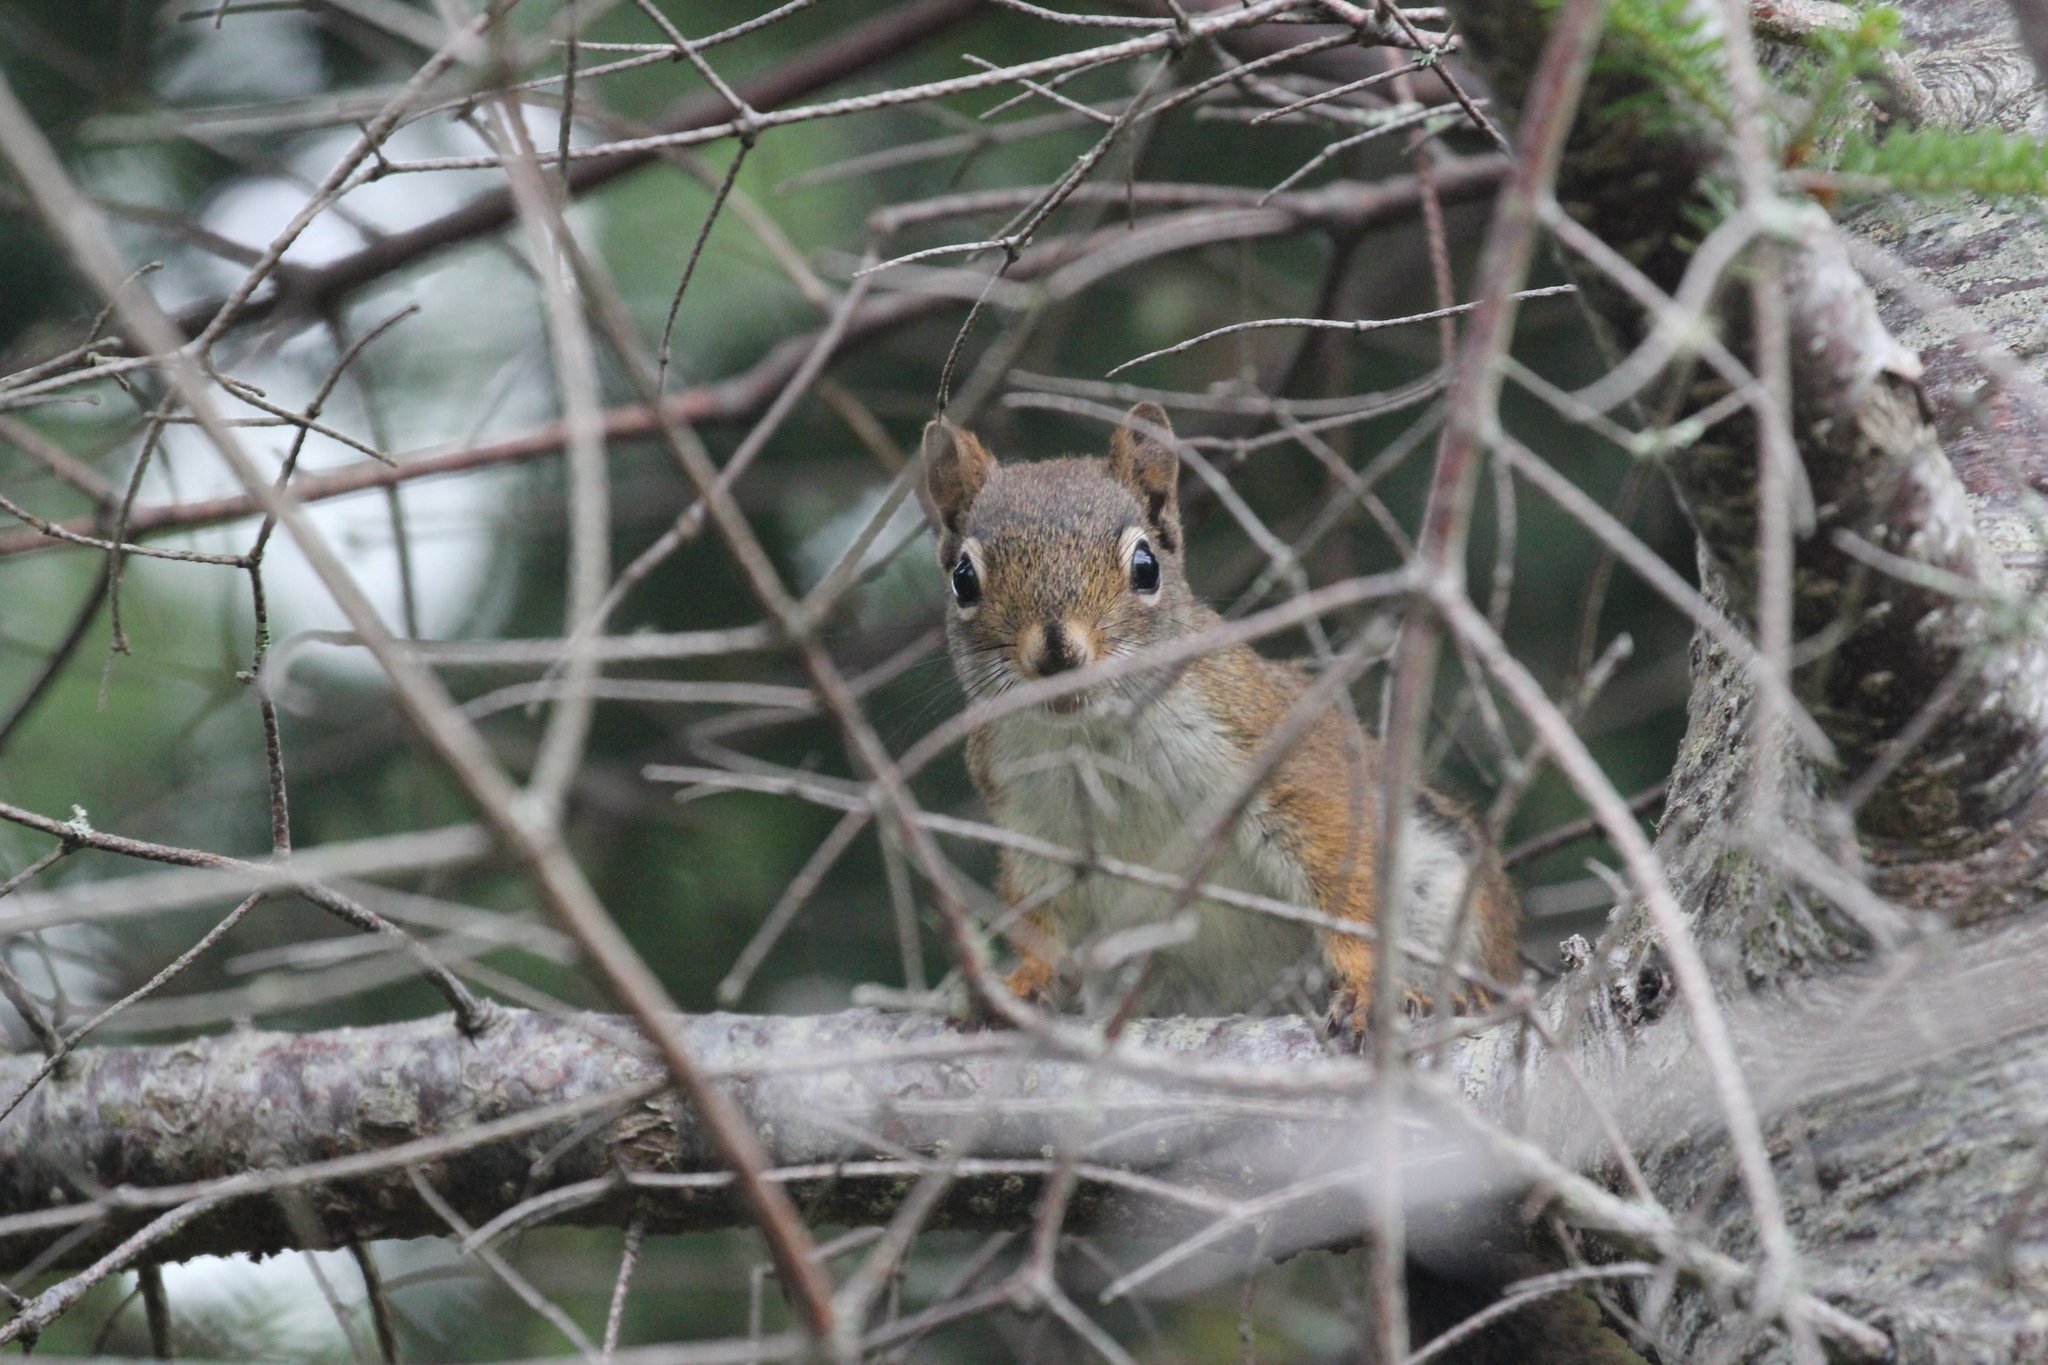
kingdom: Animalia
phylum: Chordata
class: Mammalia
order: Rodentia
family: Sciuridae
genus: Tamiasciurus
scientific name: Tamiasciurus hudsonicus
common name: Red squirrel
